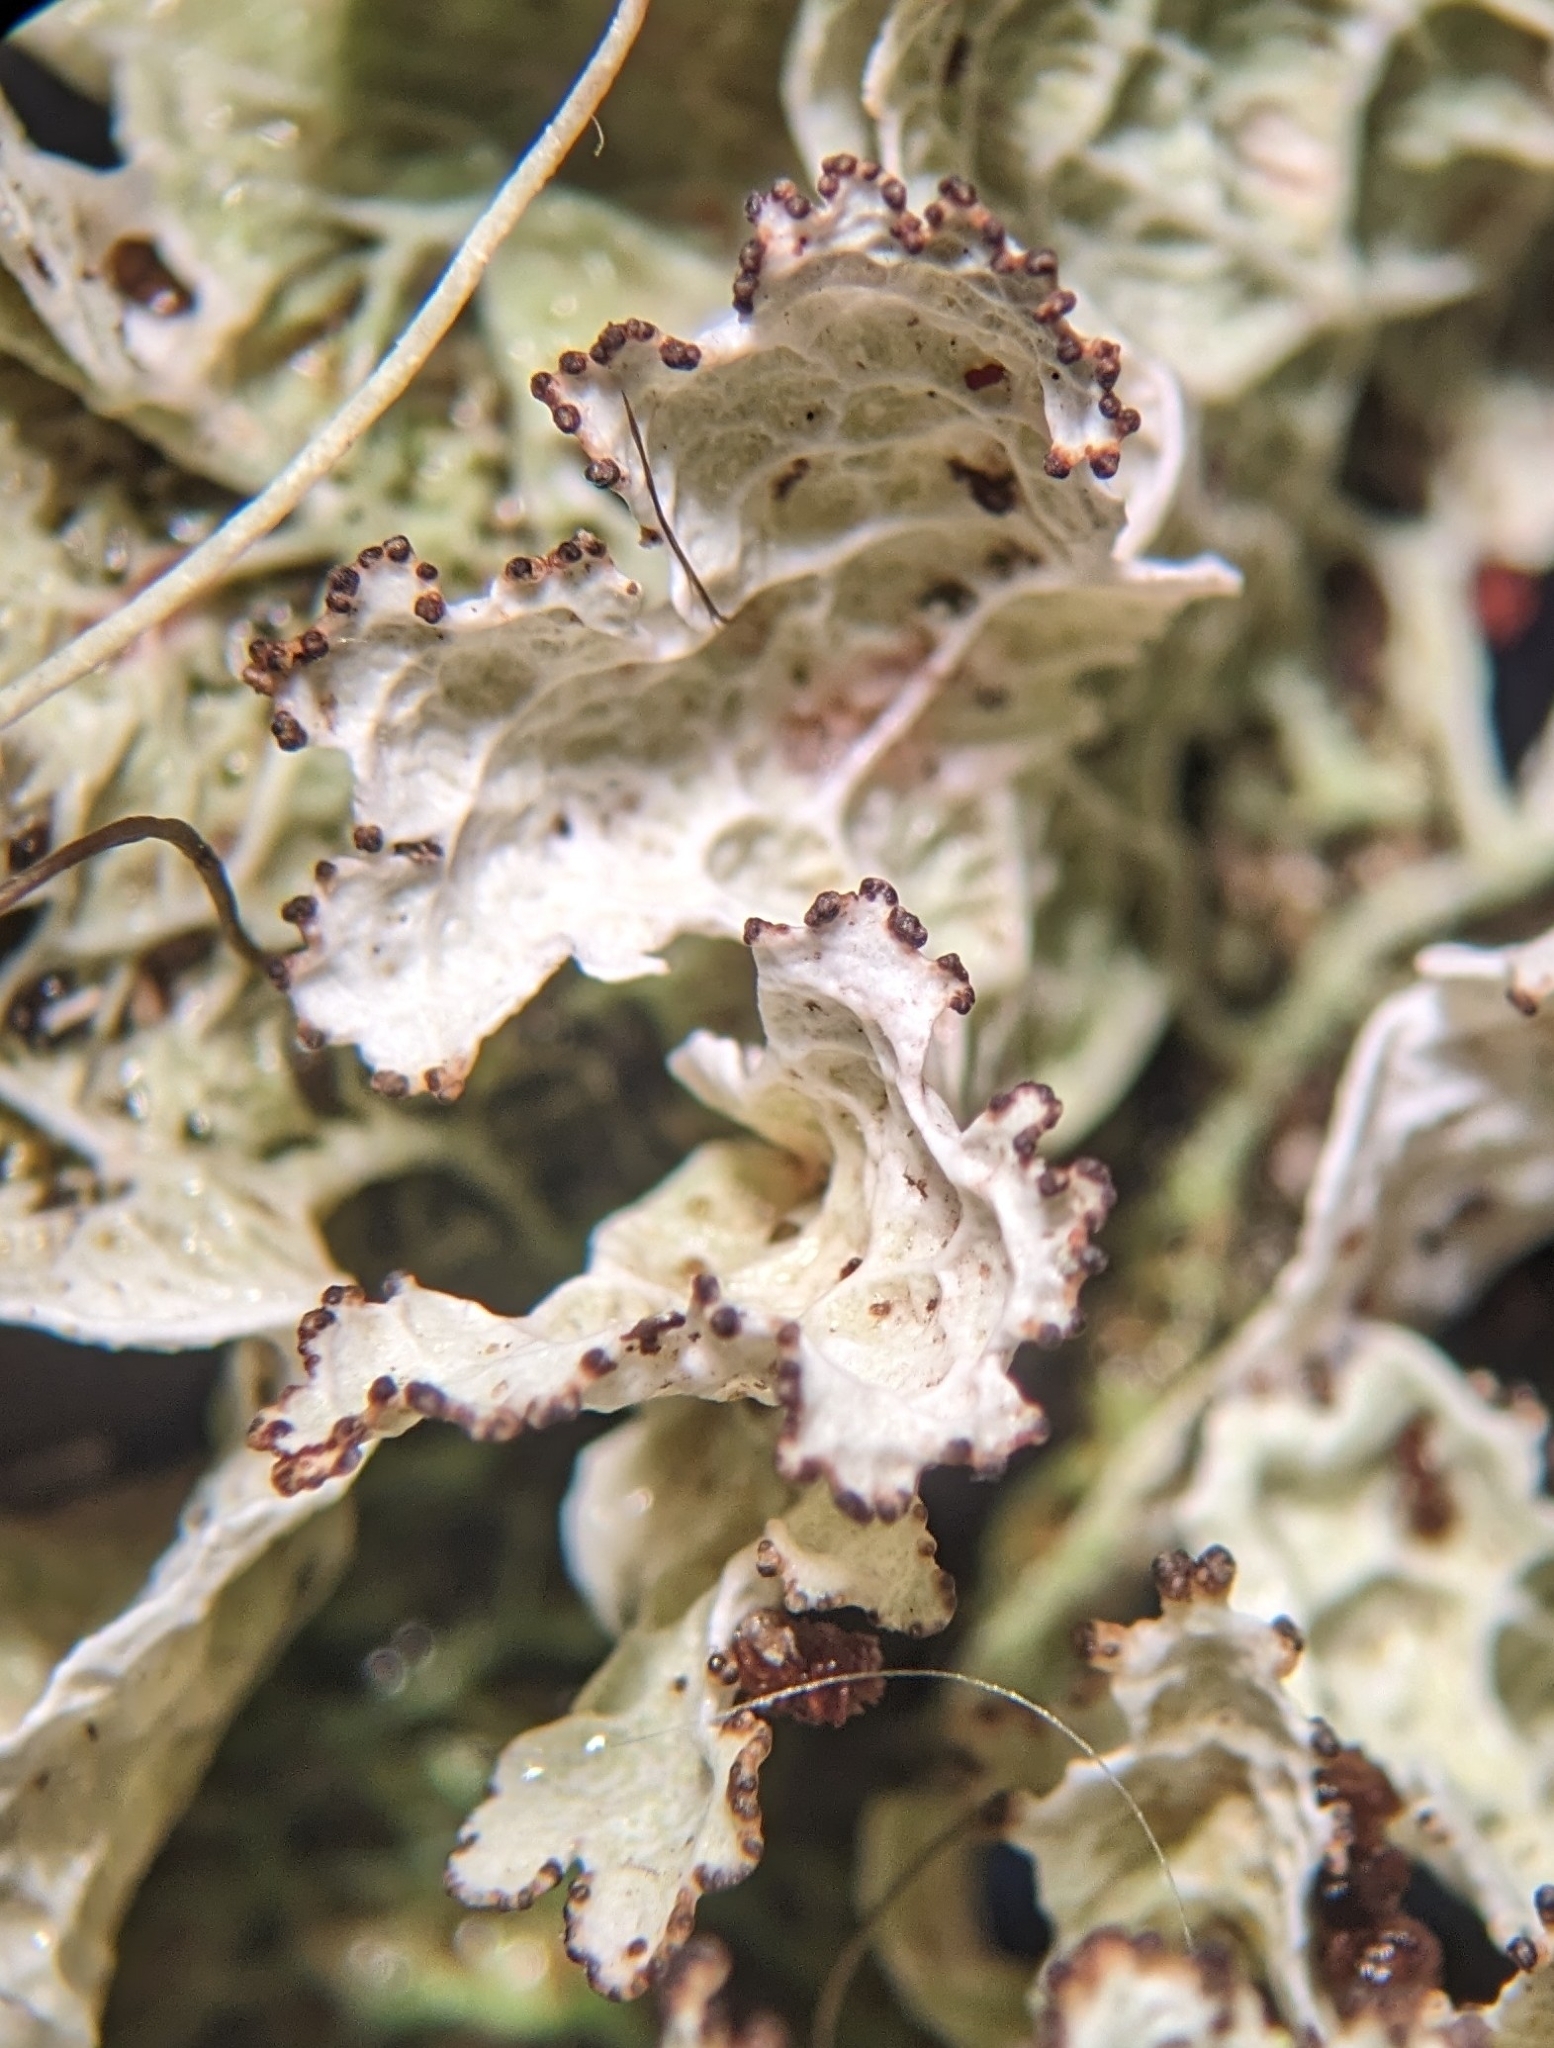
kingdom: Fungi
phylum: Ascomycota
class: Lecanoromycetes
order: Lecanorales
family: Parmeliaceae
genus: Platismatia
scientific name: Platismatia norvegica
